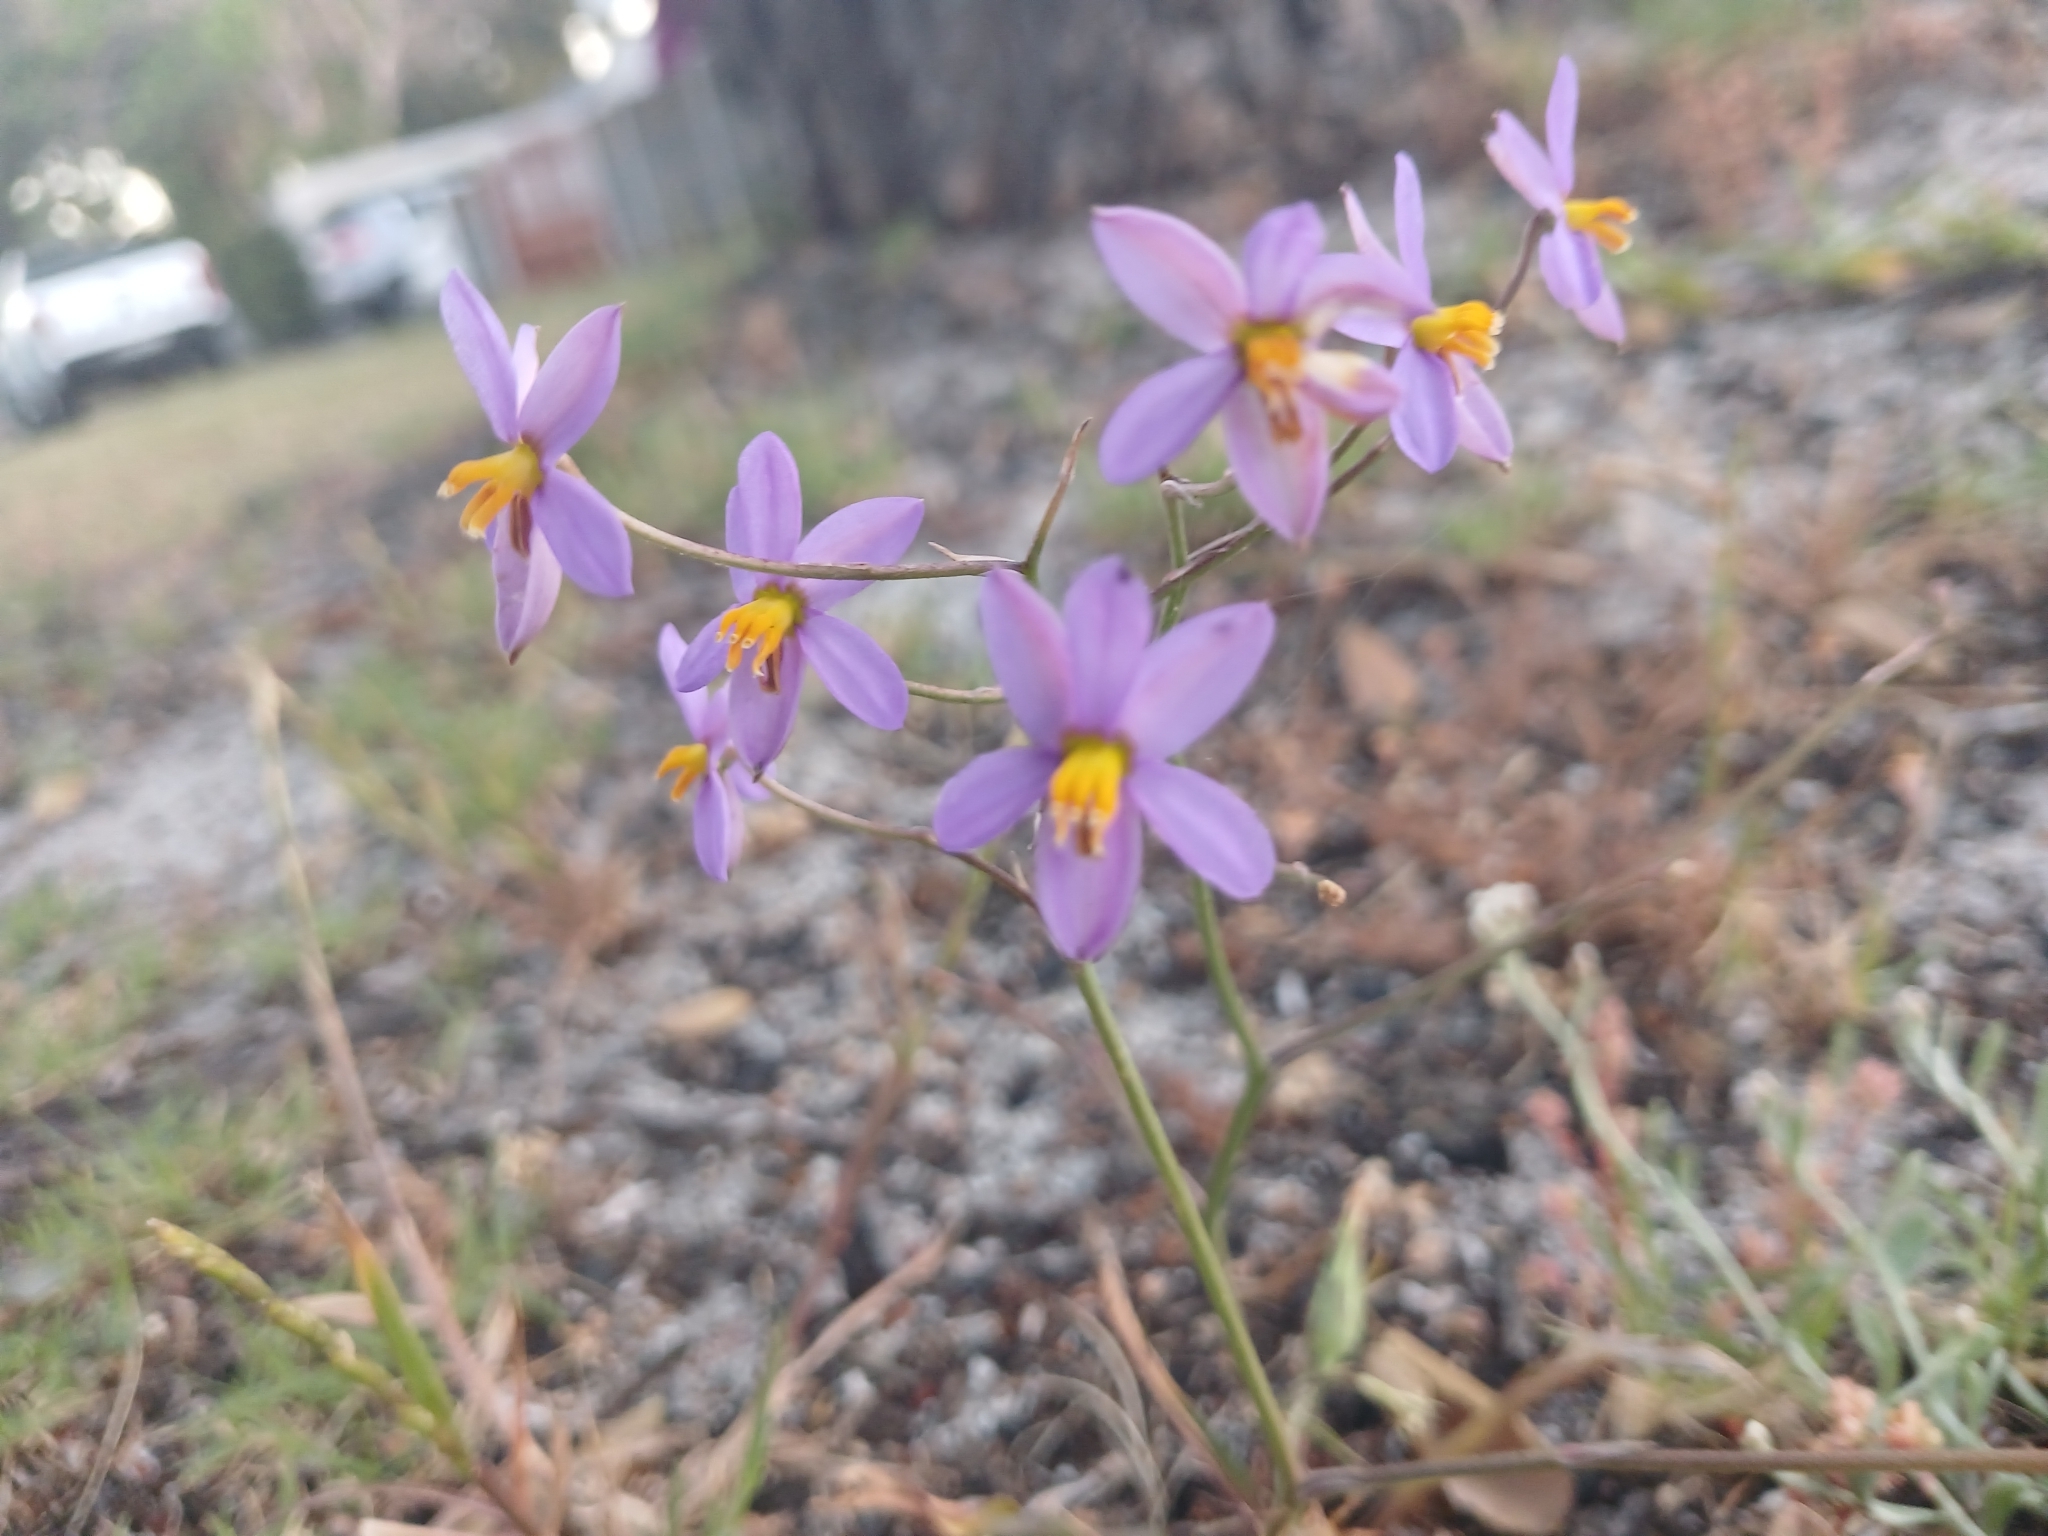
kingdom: Plantae
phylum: Tracheophyta
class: Liliopsida
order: Asparagales
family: Tecophilaeaceae
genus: Cyanella
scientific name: Cyanella hyacinthoides
